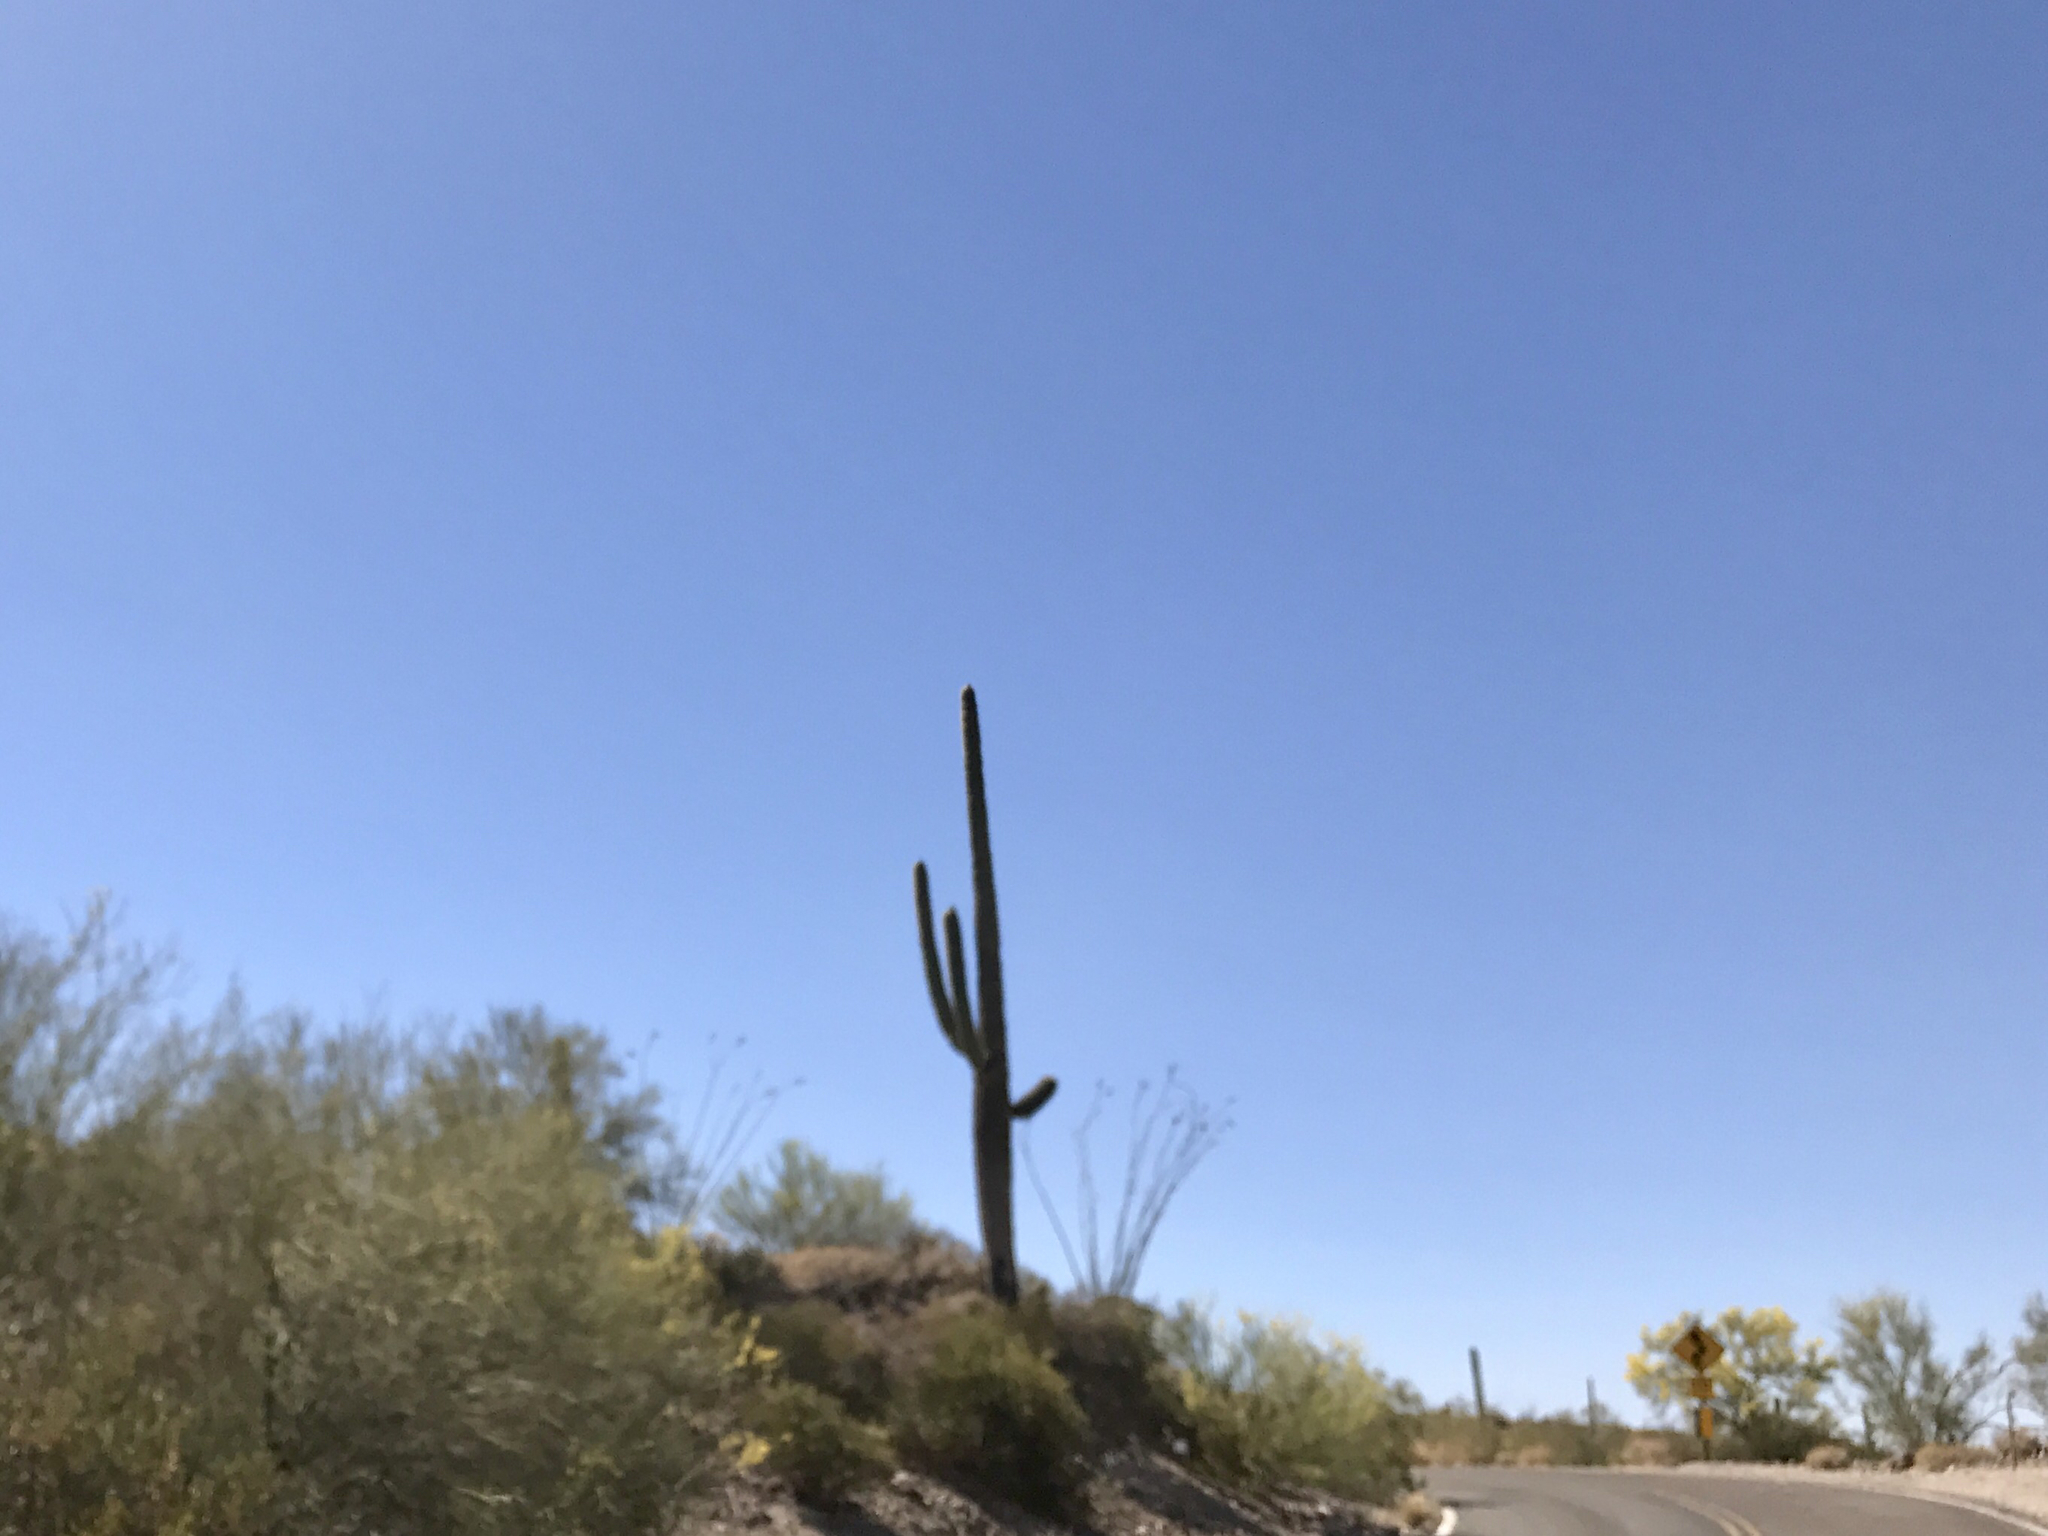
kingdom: Plantae
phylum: Tracheophyta
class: Magnoliopsida
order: Caryophyllales
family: Cactaceae
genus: Carnegiea
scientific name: Carnegiea gigantea
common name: Saguaro
